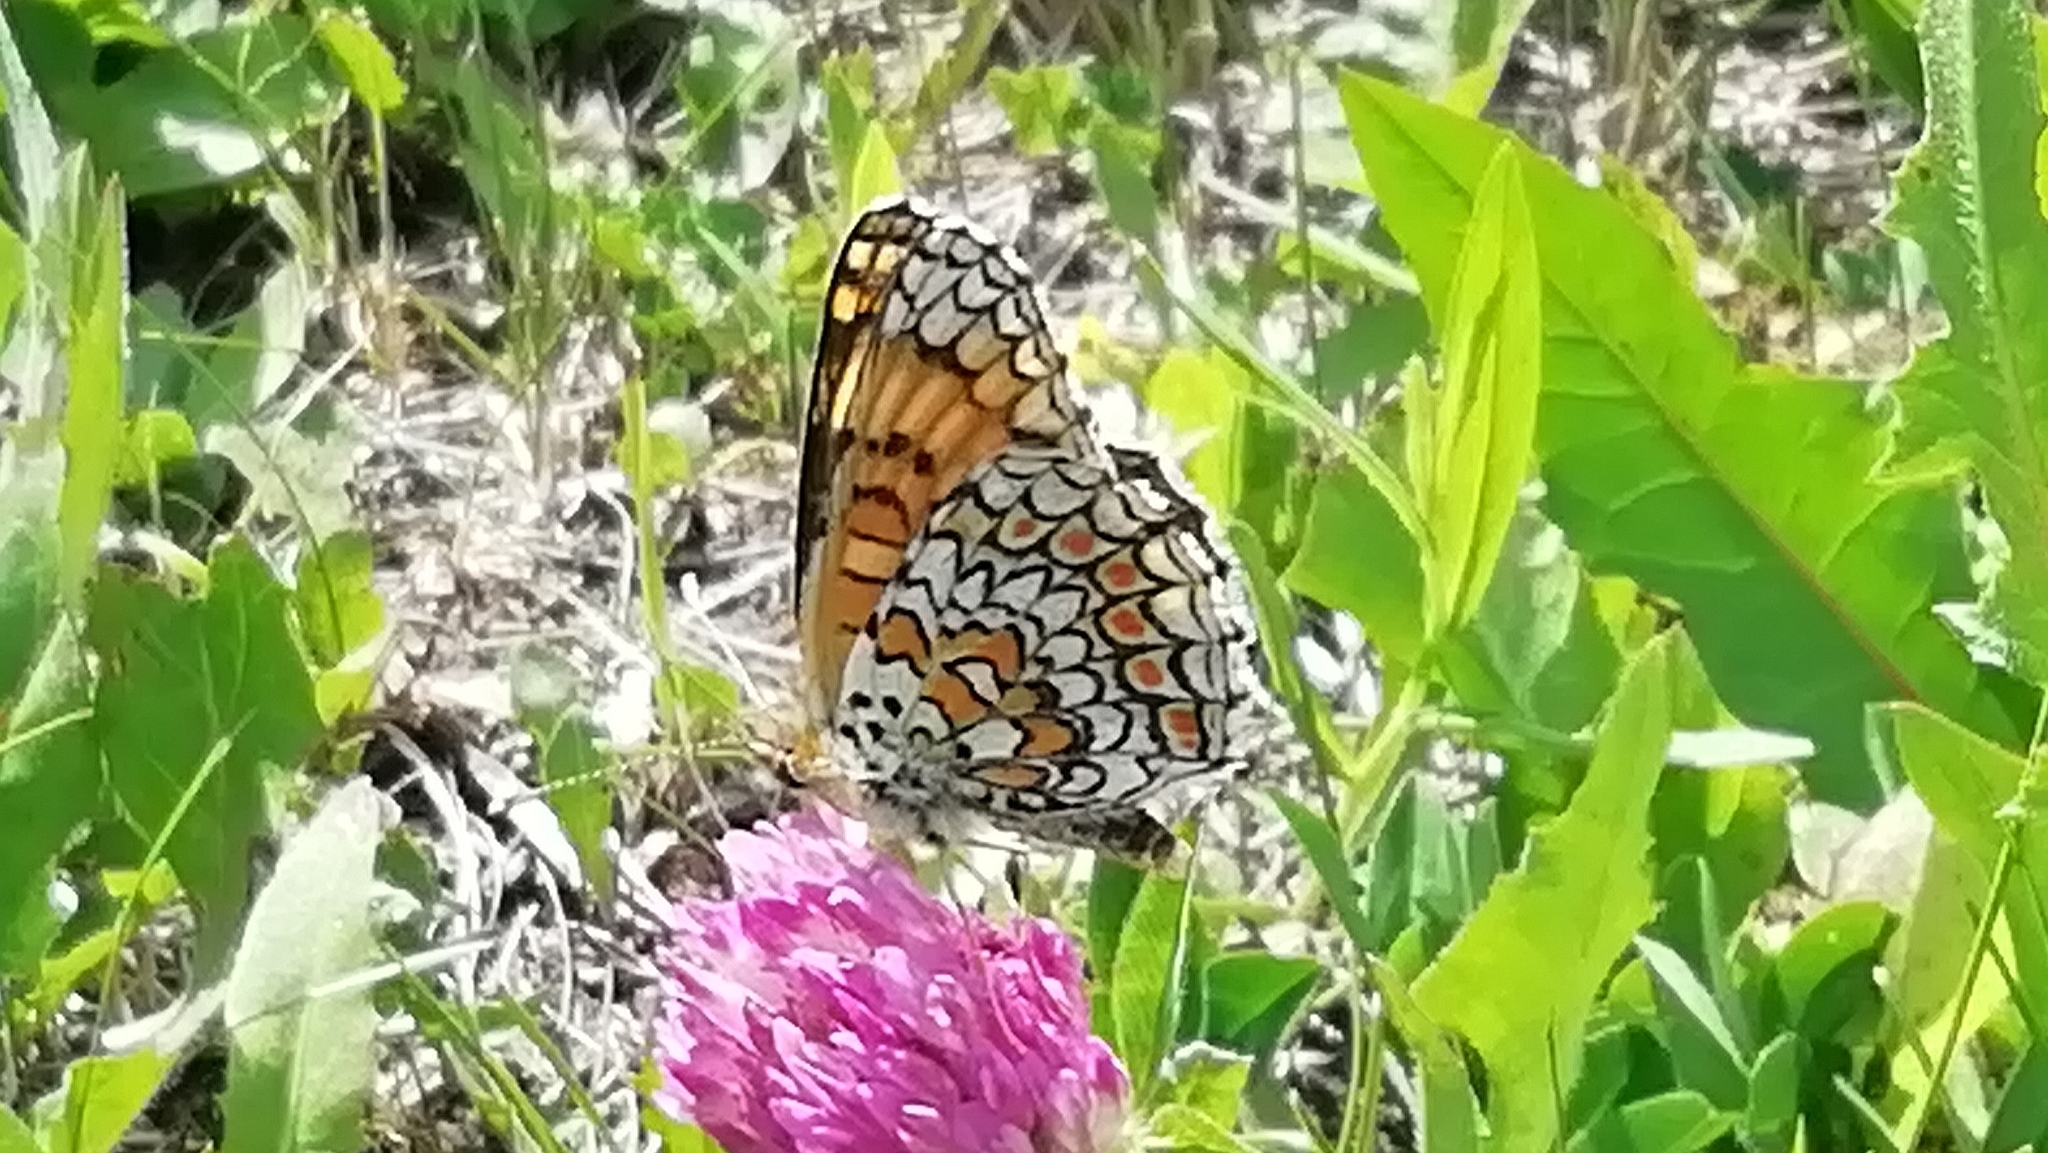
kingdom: Animalia
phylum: Arthropoda
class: Insecta
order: Lepidoptera
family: Nymphalidae
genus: Melitaea
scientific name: Melitaea phoebe
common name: Knapweed fritillary
